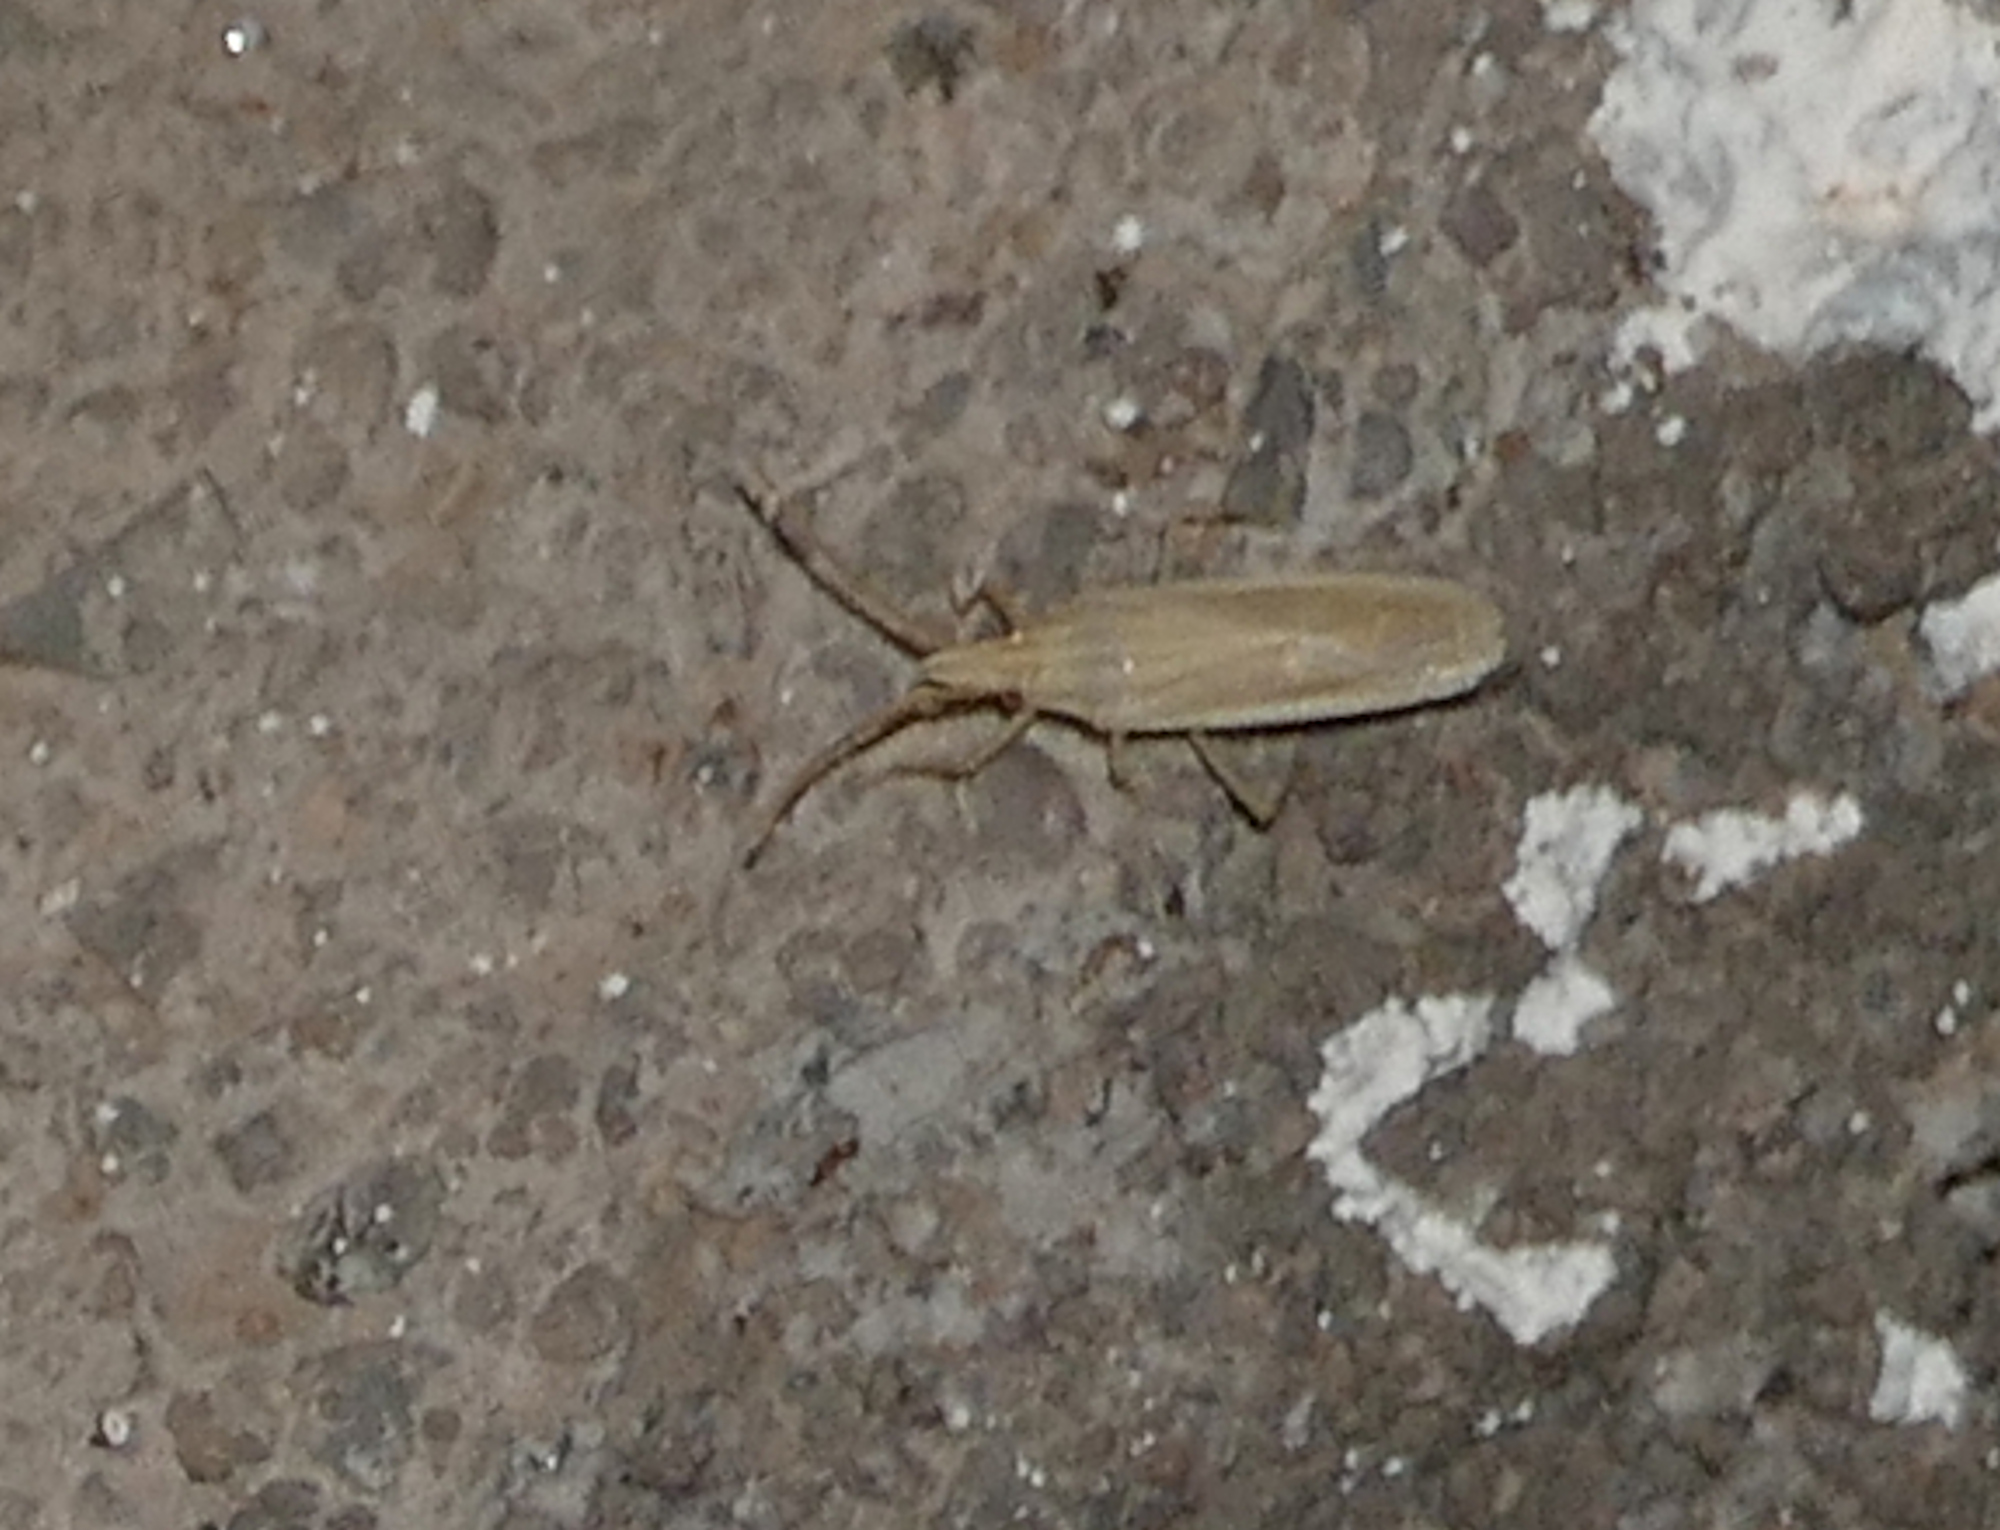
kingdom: Animalia
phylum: Arthropoda
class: Insecta
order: Hemiptera
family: Pentatomidae
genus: Mecidea
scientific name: Mecidea
